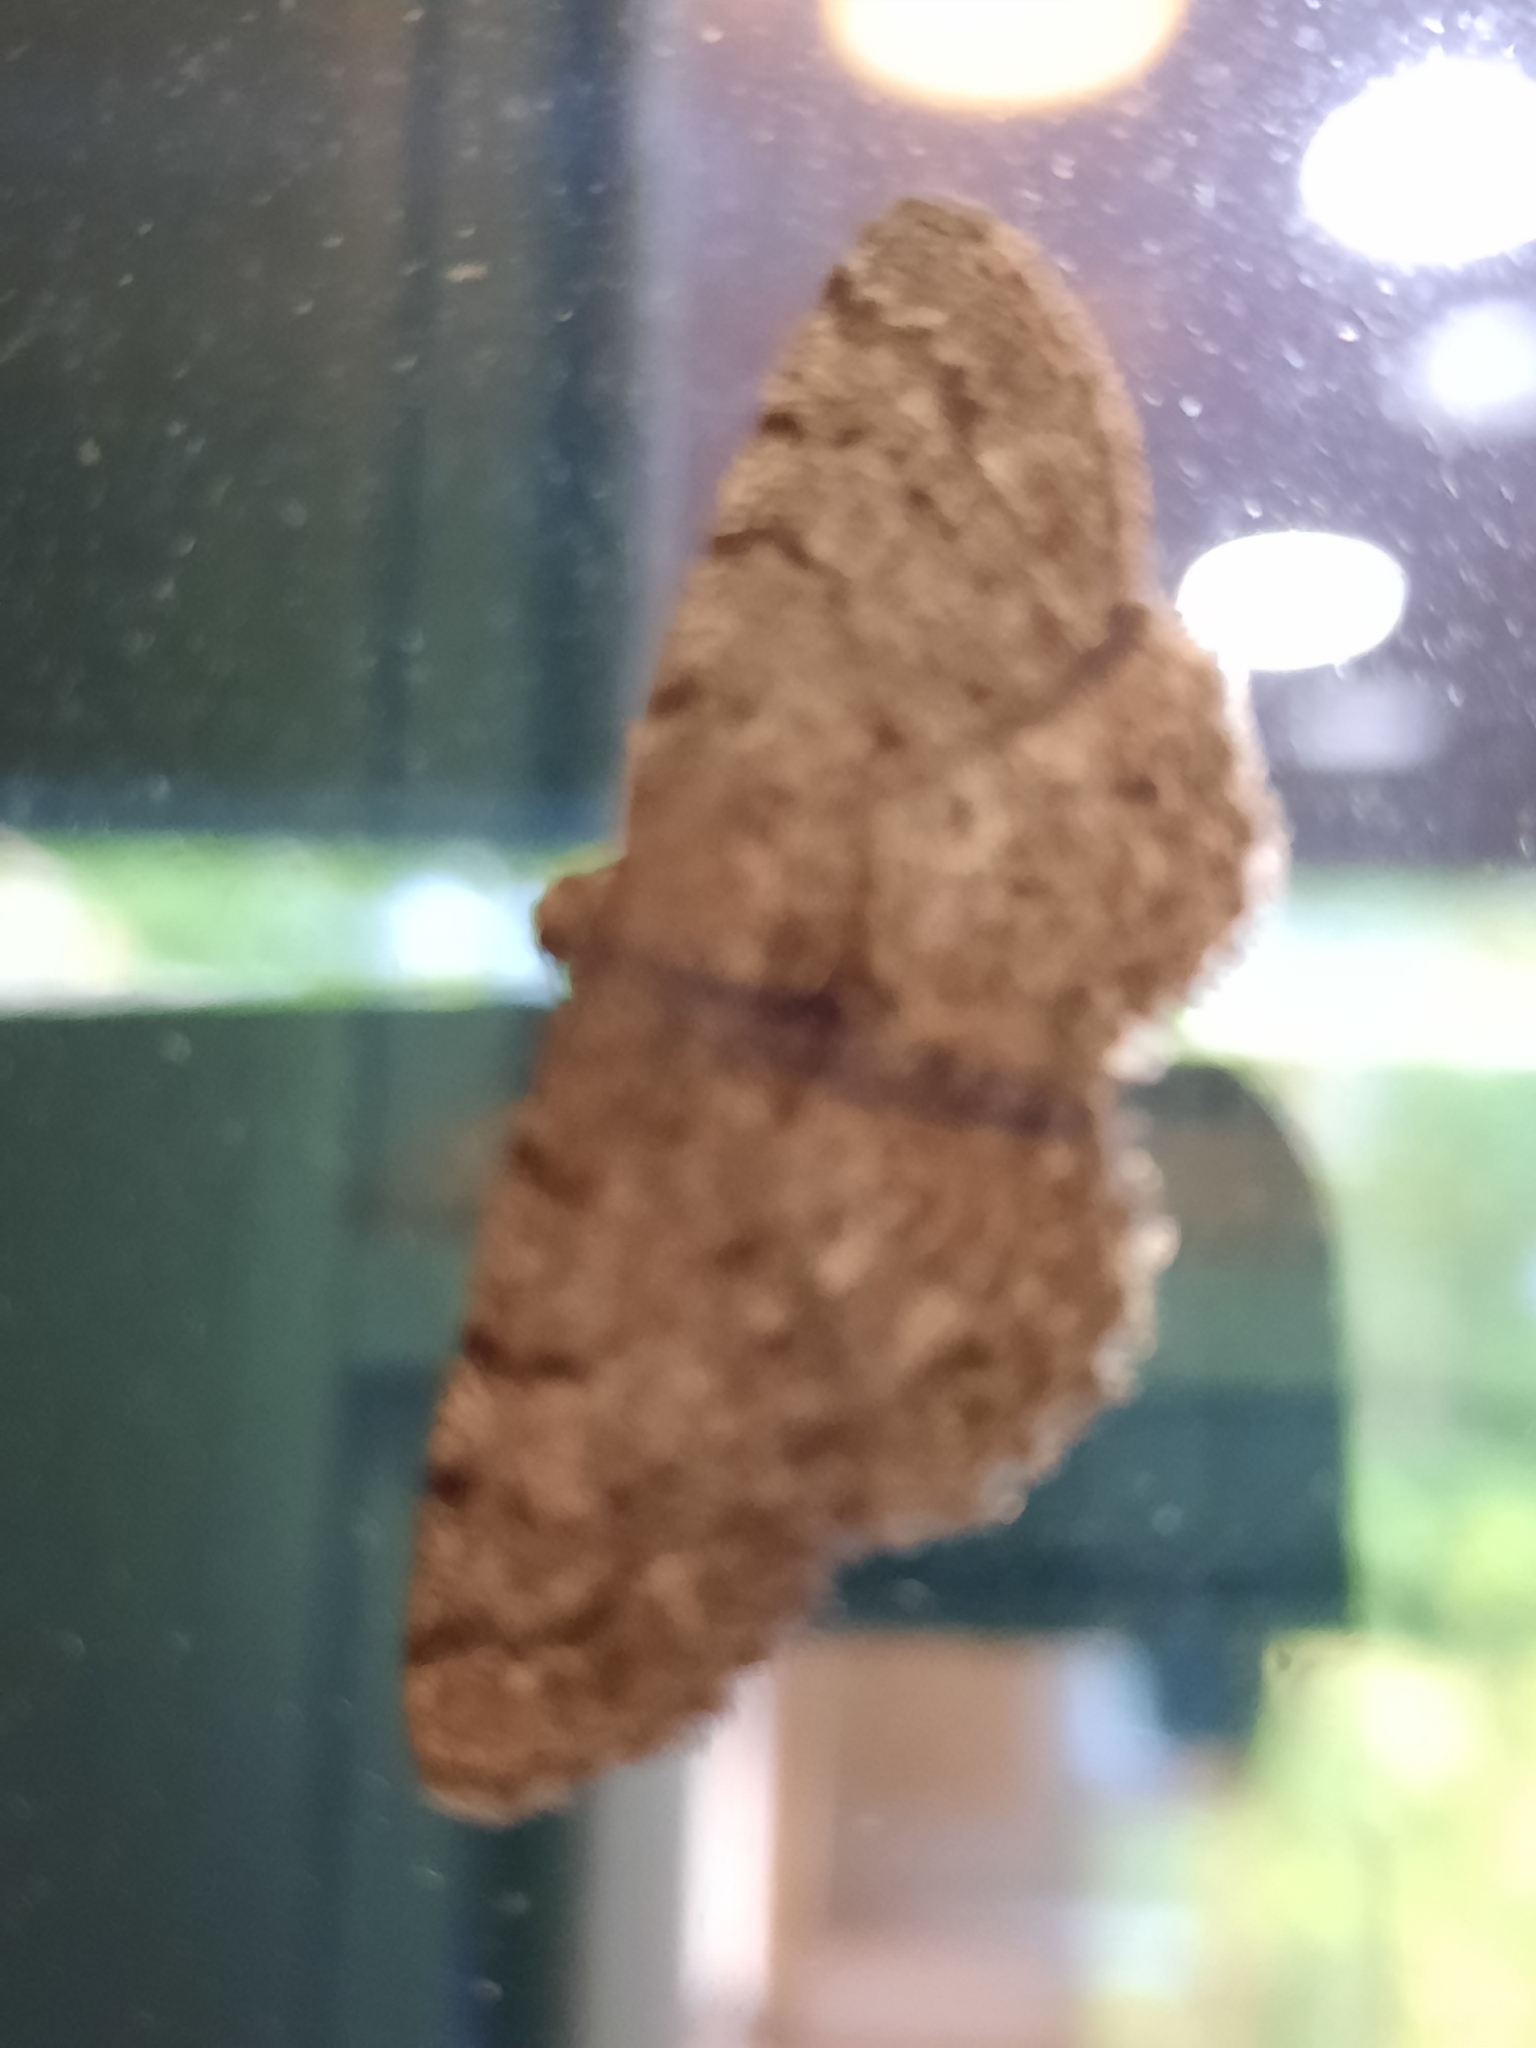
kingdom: Animalia
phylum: Arthropoda
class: Insecta
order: Lepidoptera
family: Geometridae
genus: Aethalura
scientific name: Aethalura intertexta
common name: Four-barred gray
